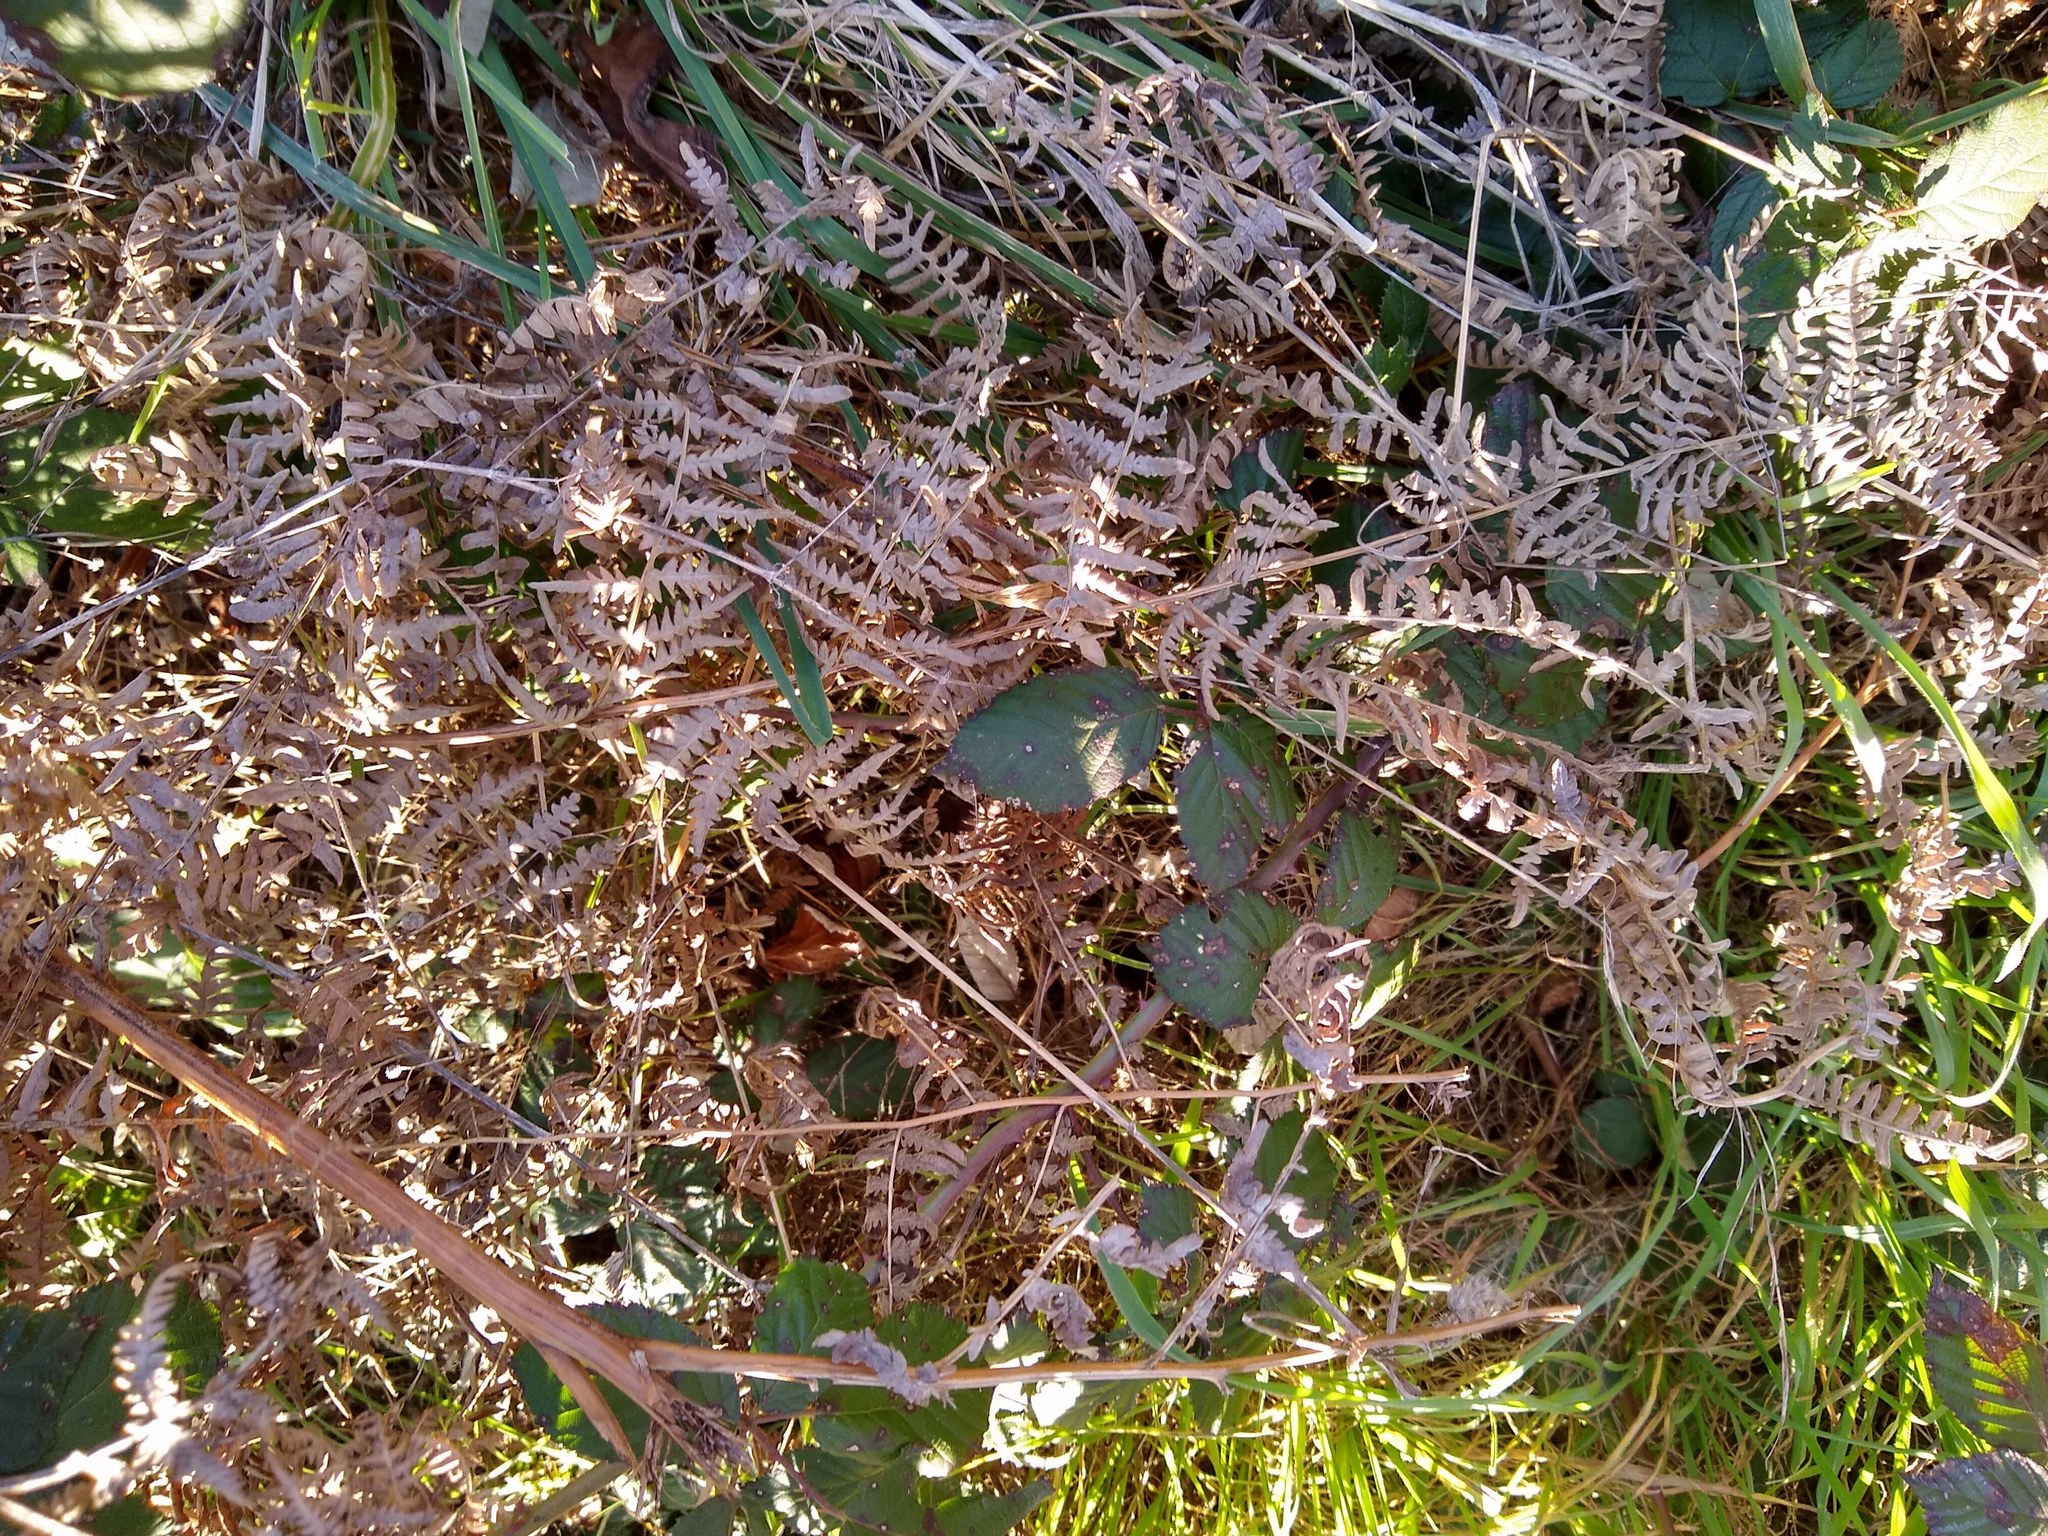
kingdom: Plantae
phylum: Tracheophyta
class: Polypodiopsida
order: Polypodiales
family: Dennstaedtiaceae
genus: Pteridium
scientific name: Pteridium aquilinum
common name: Bracken
